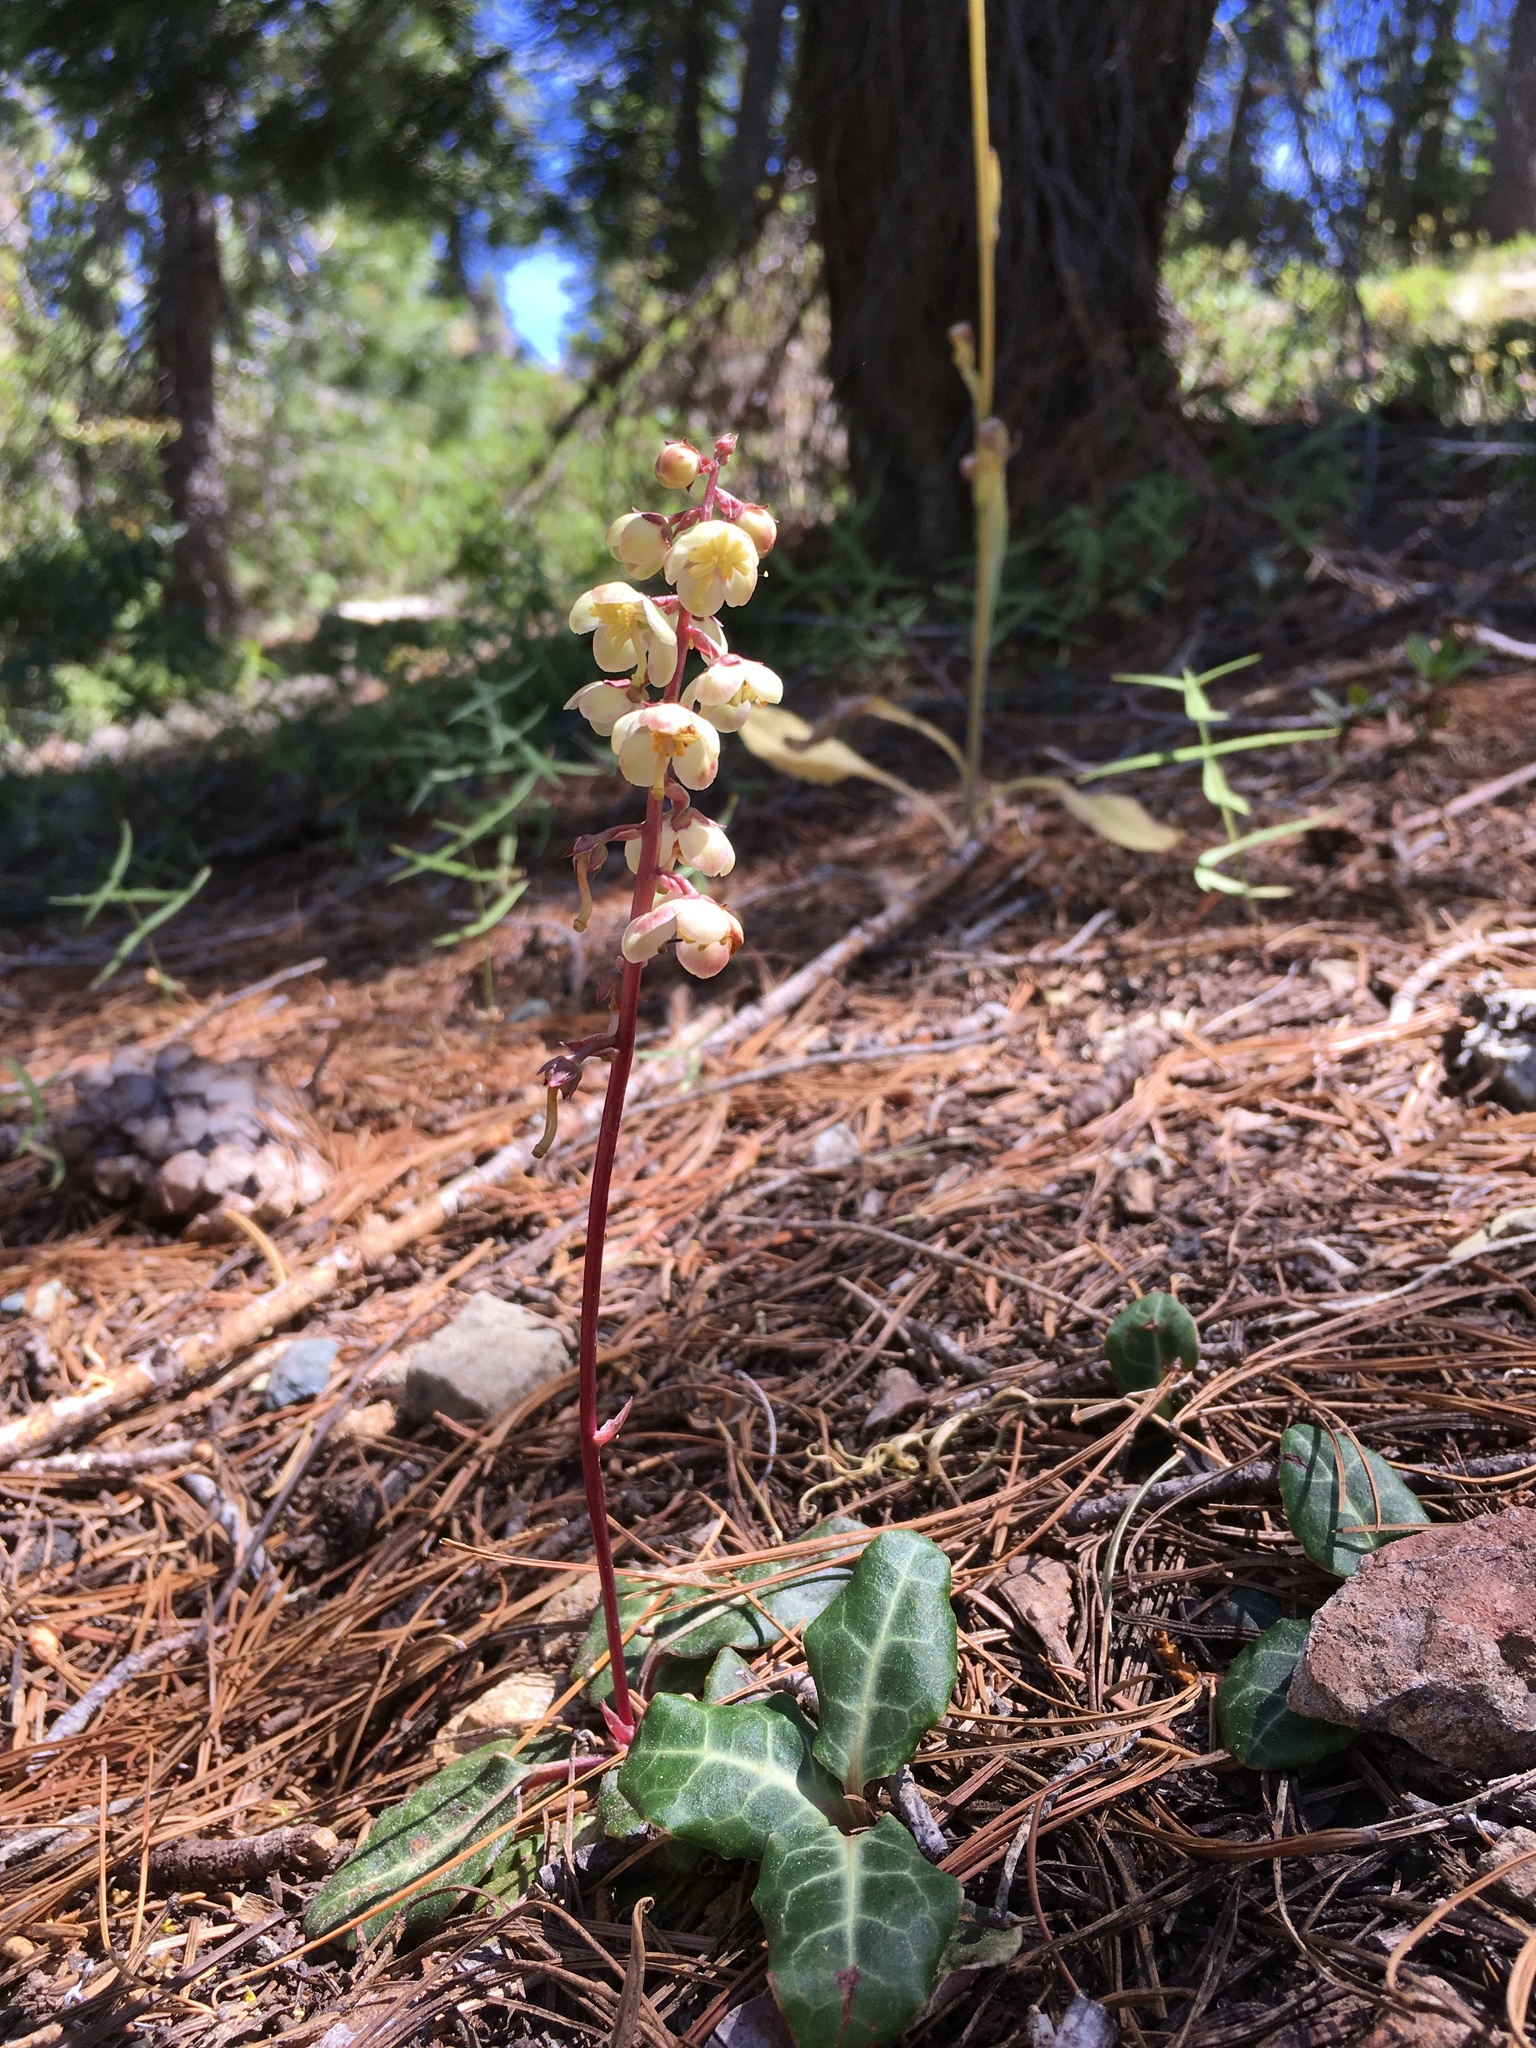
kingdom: Plantae
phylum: Tracheophyta
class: Magnoliopsida
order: Ericales
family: Ericaceae
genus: Pyrola
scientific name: Pyrola picta
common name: White-vein wintergreen
